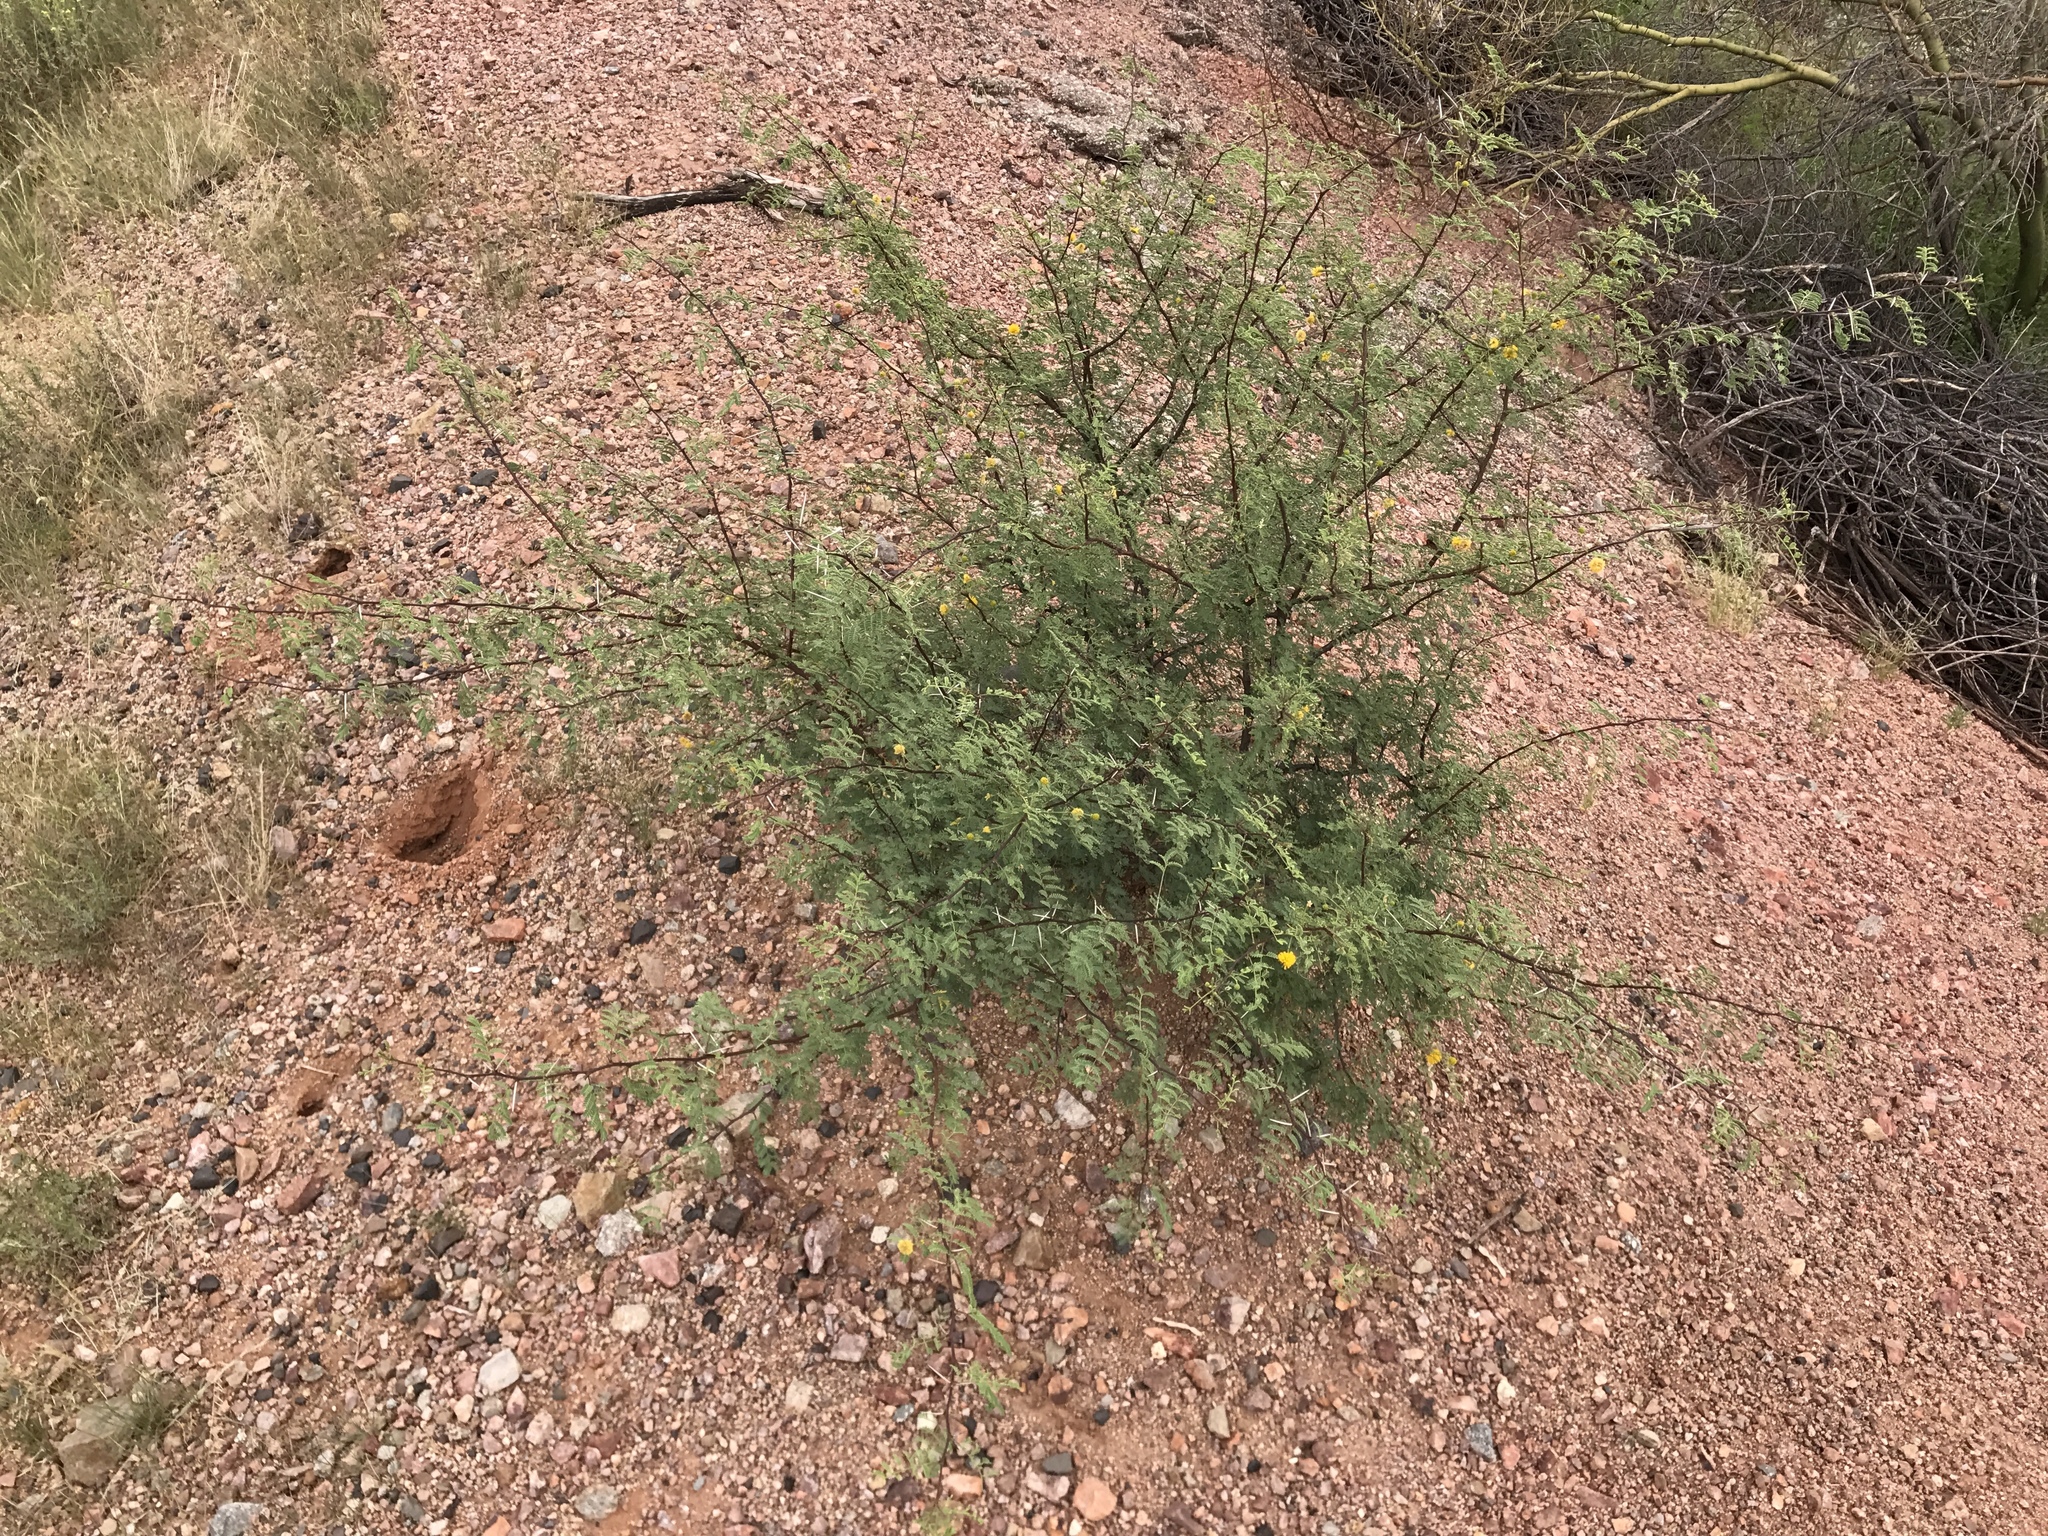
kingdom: Plantae
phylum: Tracheophyta
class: Magnoliopsida
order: Fabales
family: Fabaceae
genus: Vachellia
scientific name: Vachellia constricta
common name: Mescat acacia
